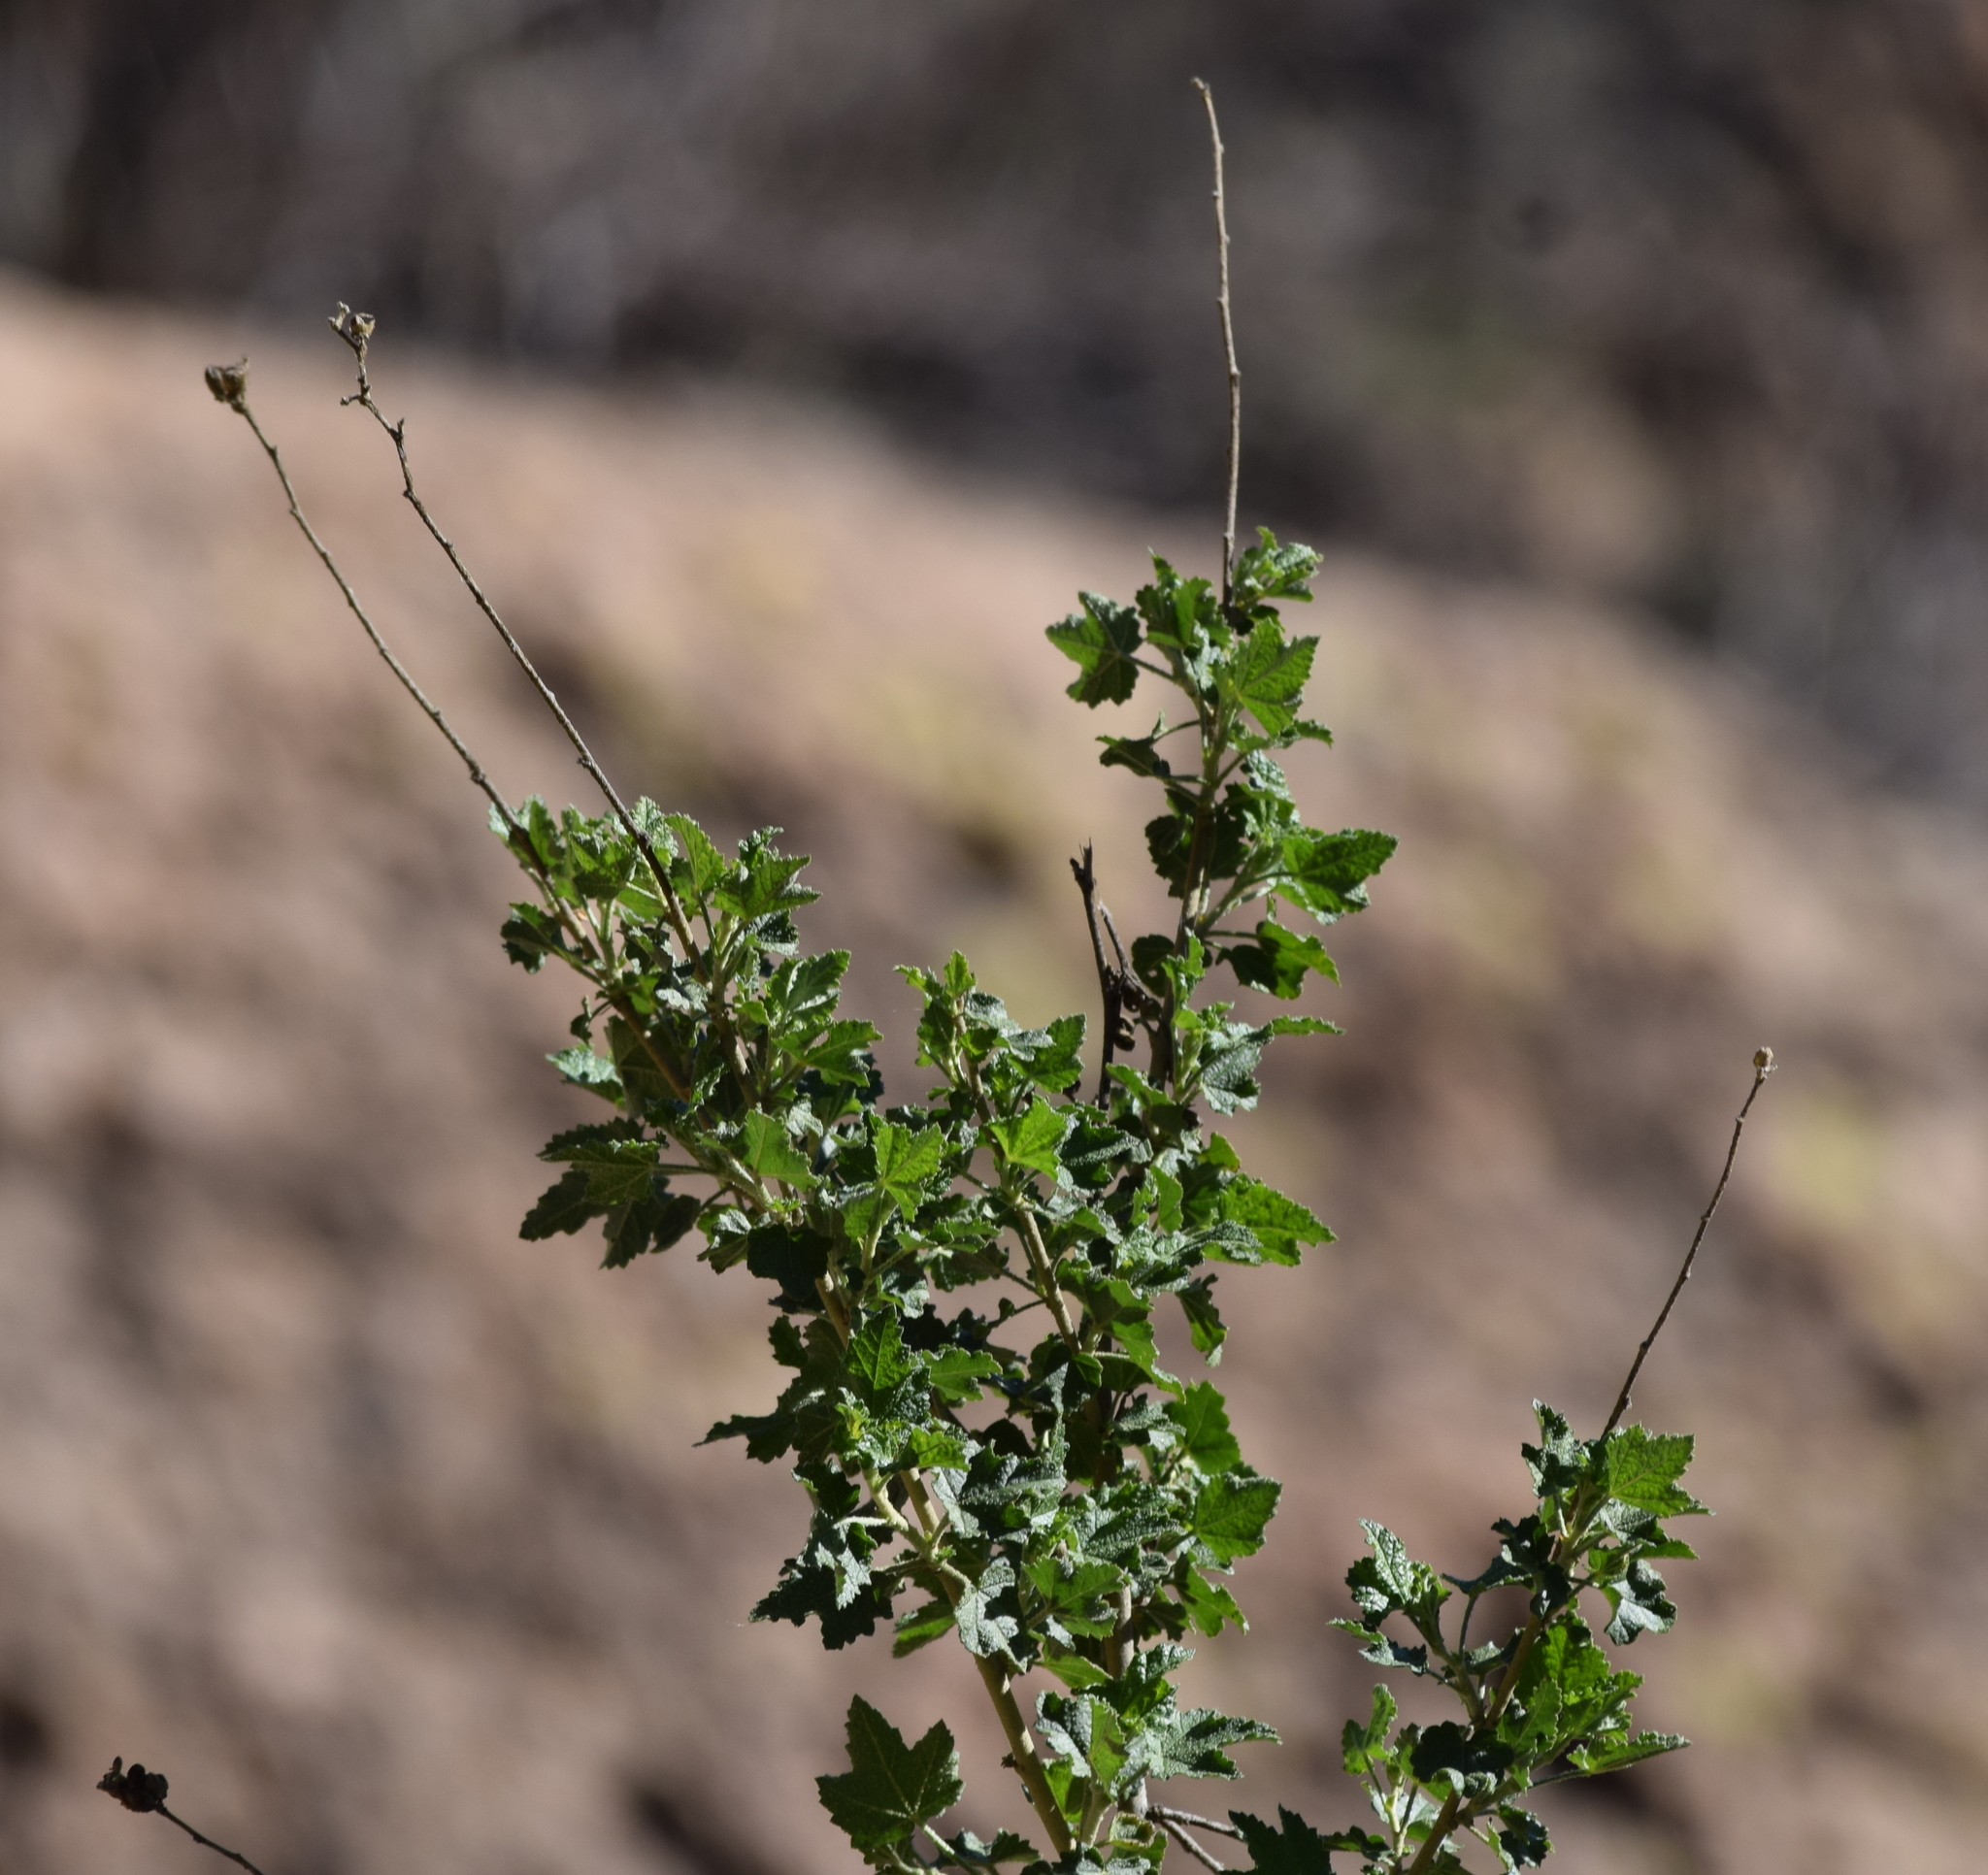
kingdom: Plantae
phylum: Tracheophyta
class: Magnoliopsida
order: Malvales
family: Malvaceae
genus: Malacothamnus
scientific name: Malacothamnus fasciculatus
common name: Sant cruz island bush-mallow
